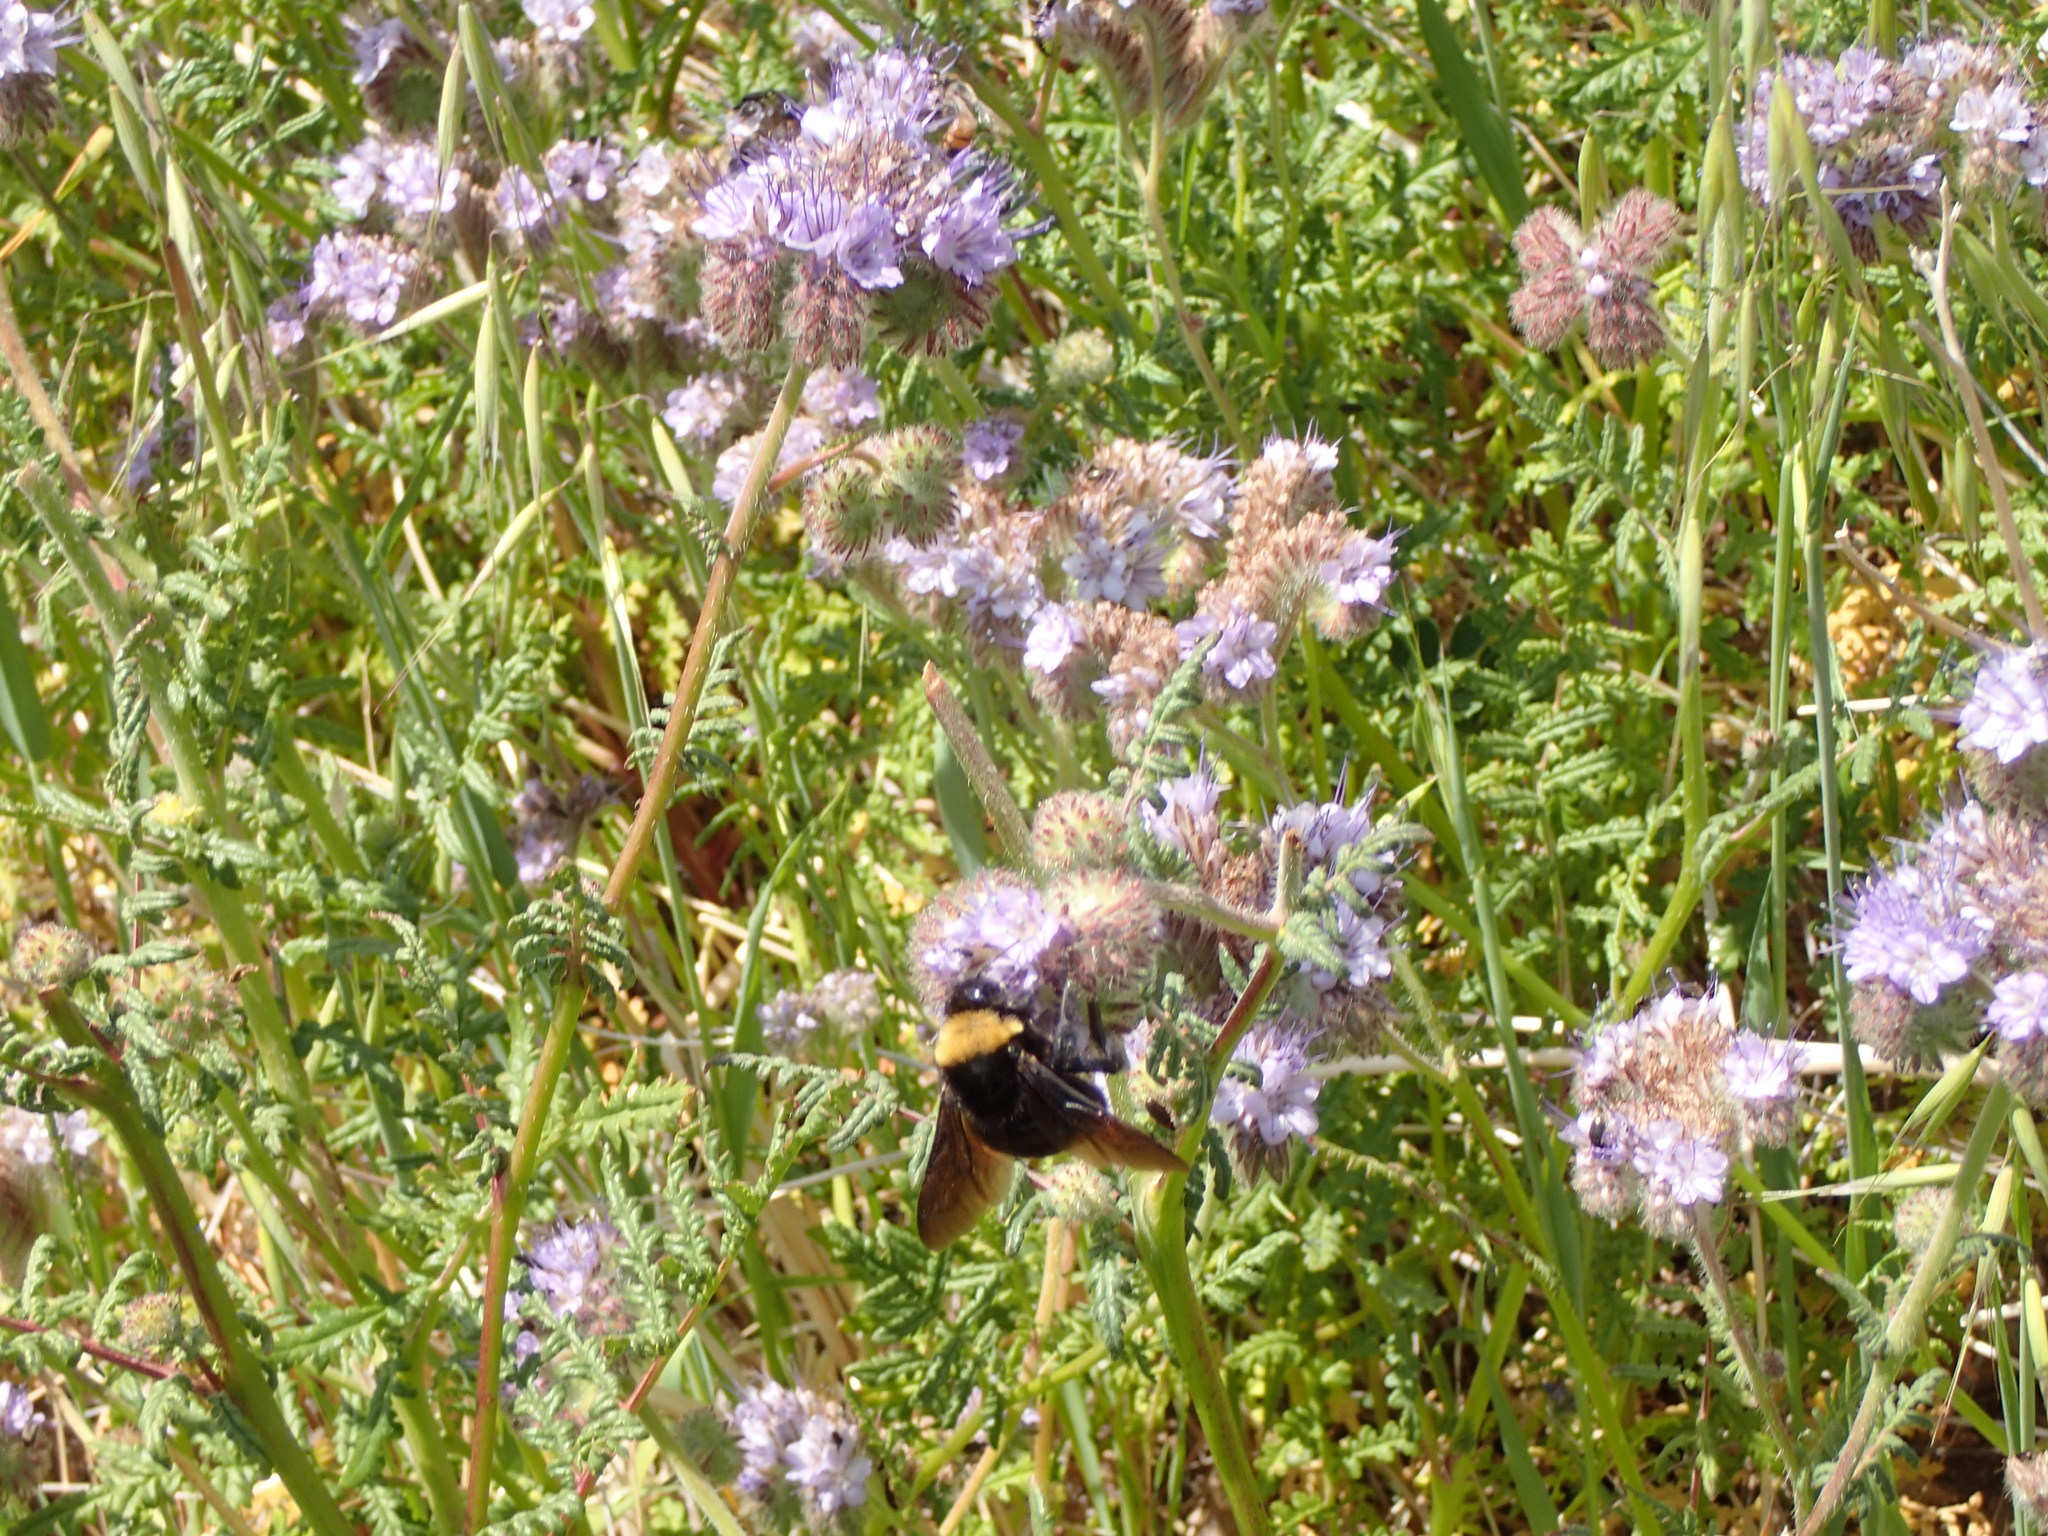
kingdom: Animalia
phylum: Arthropoda
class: Insecta
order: Hymenoptera
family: Apidae
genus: Bombus
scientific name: Bombus crotchii
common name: Crotch bumble bee
